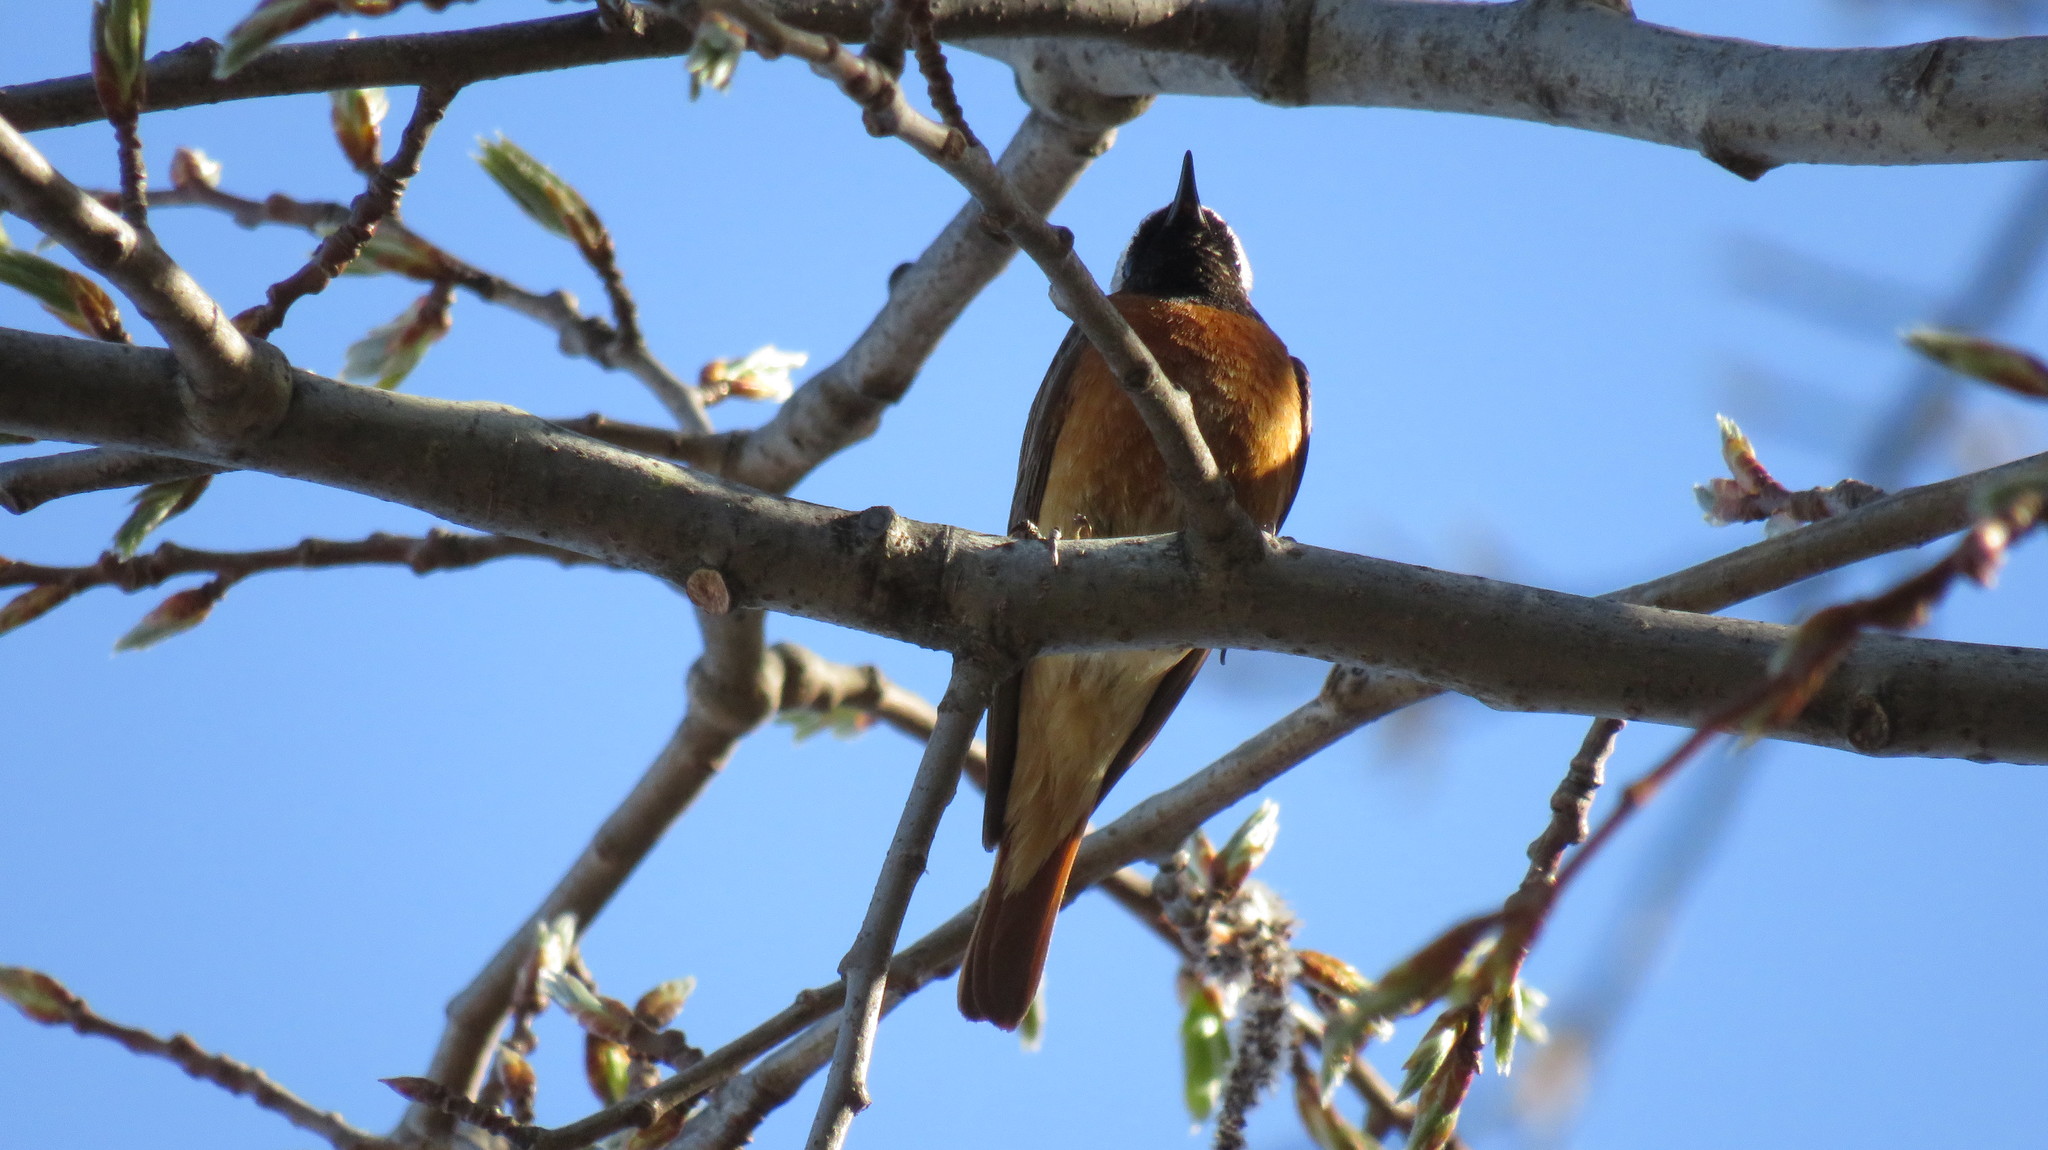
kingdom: Animalia
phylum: Chordata
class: Aves
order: Passeriformes
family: Muscicapidae
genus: Phoenicurus
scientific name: Phoenicurus phoenicurus
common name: Common redstart
